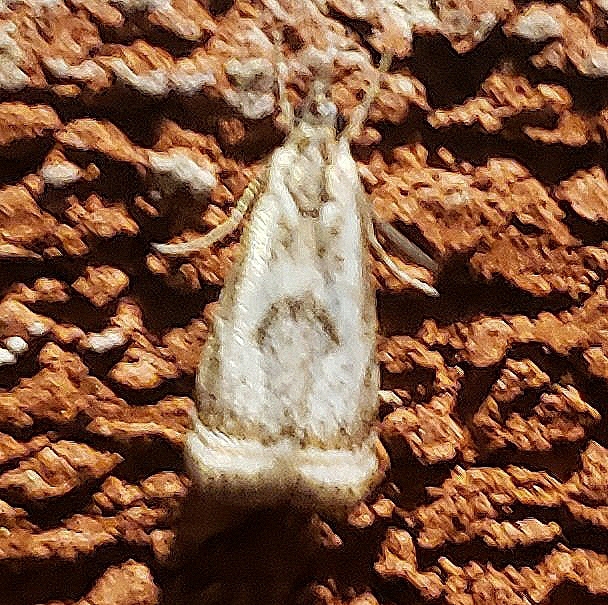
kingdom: Animalia
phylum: Arthropoda
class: Insecta
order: Lepidoptera
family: Crambidae
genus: Microcrambus
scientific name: Microcrambus elegans
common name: Elegant grass-veneer
